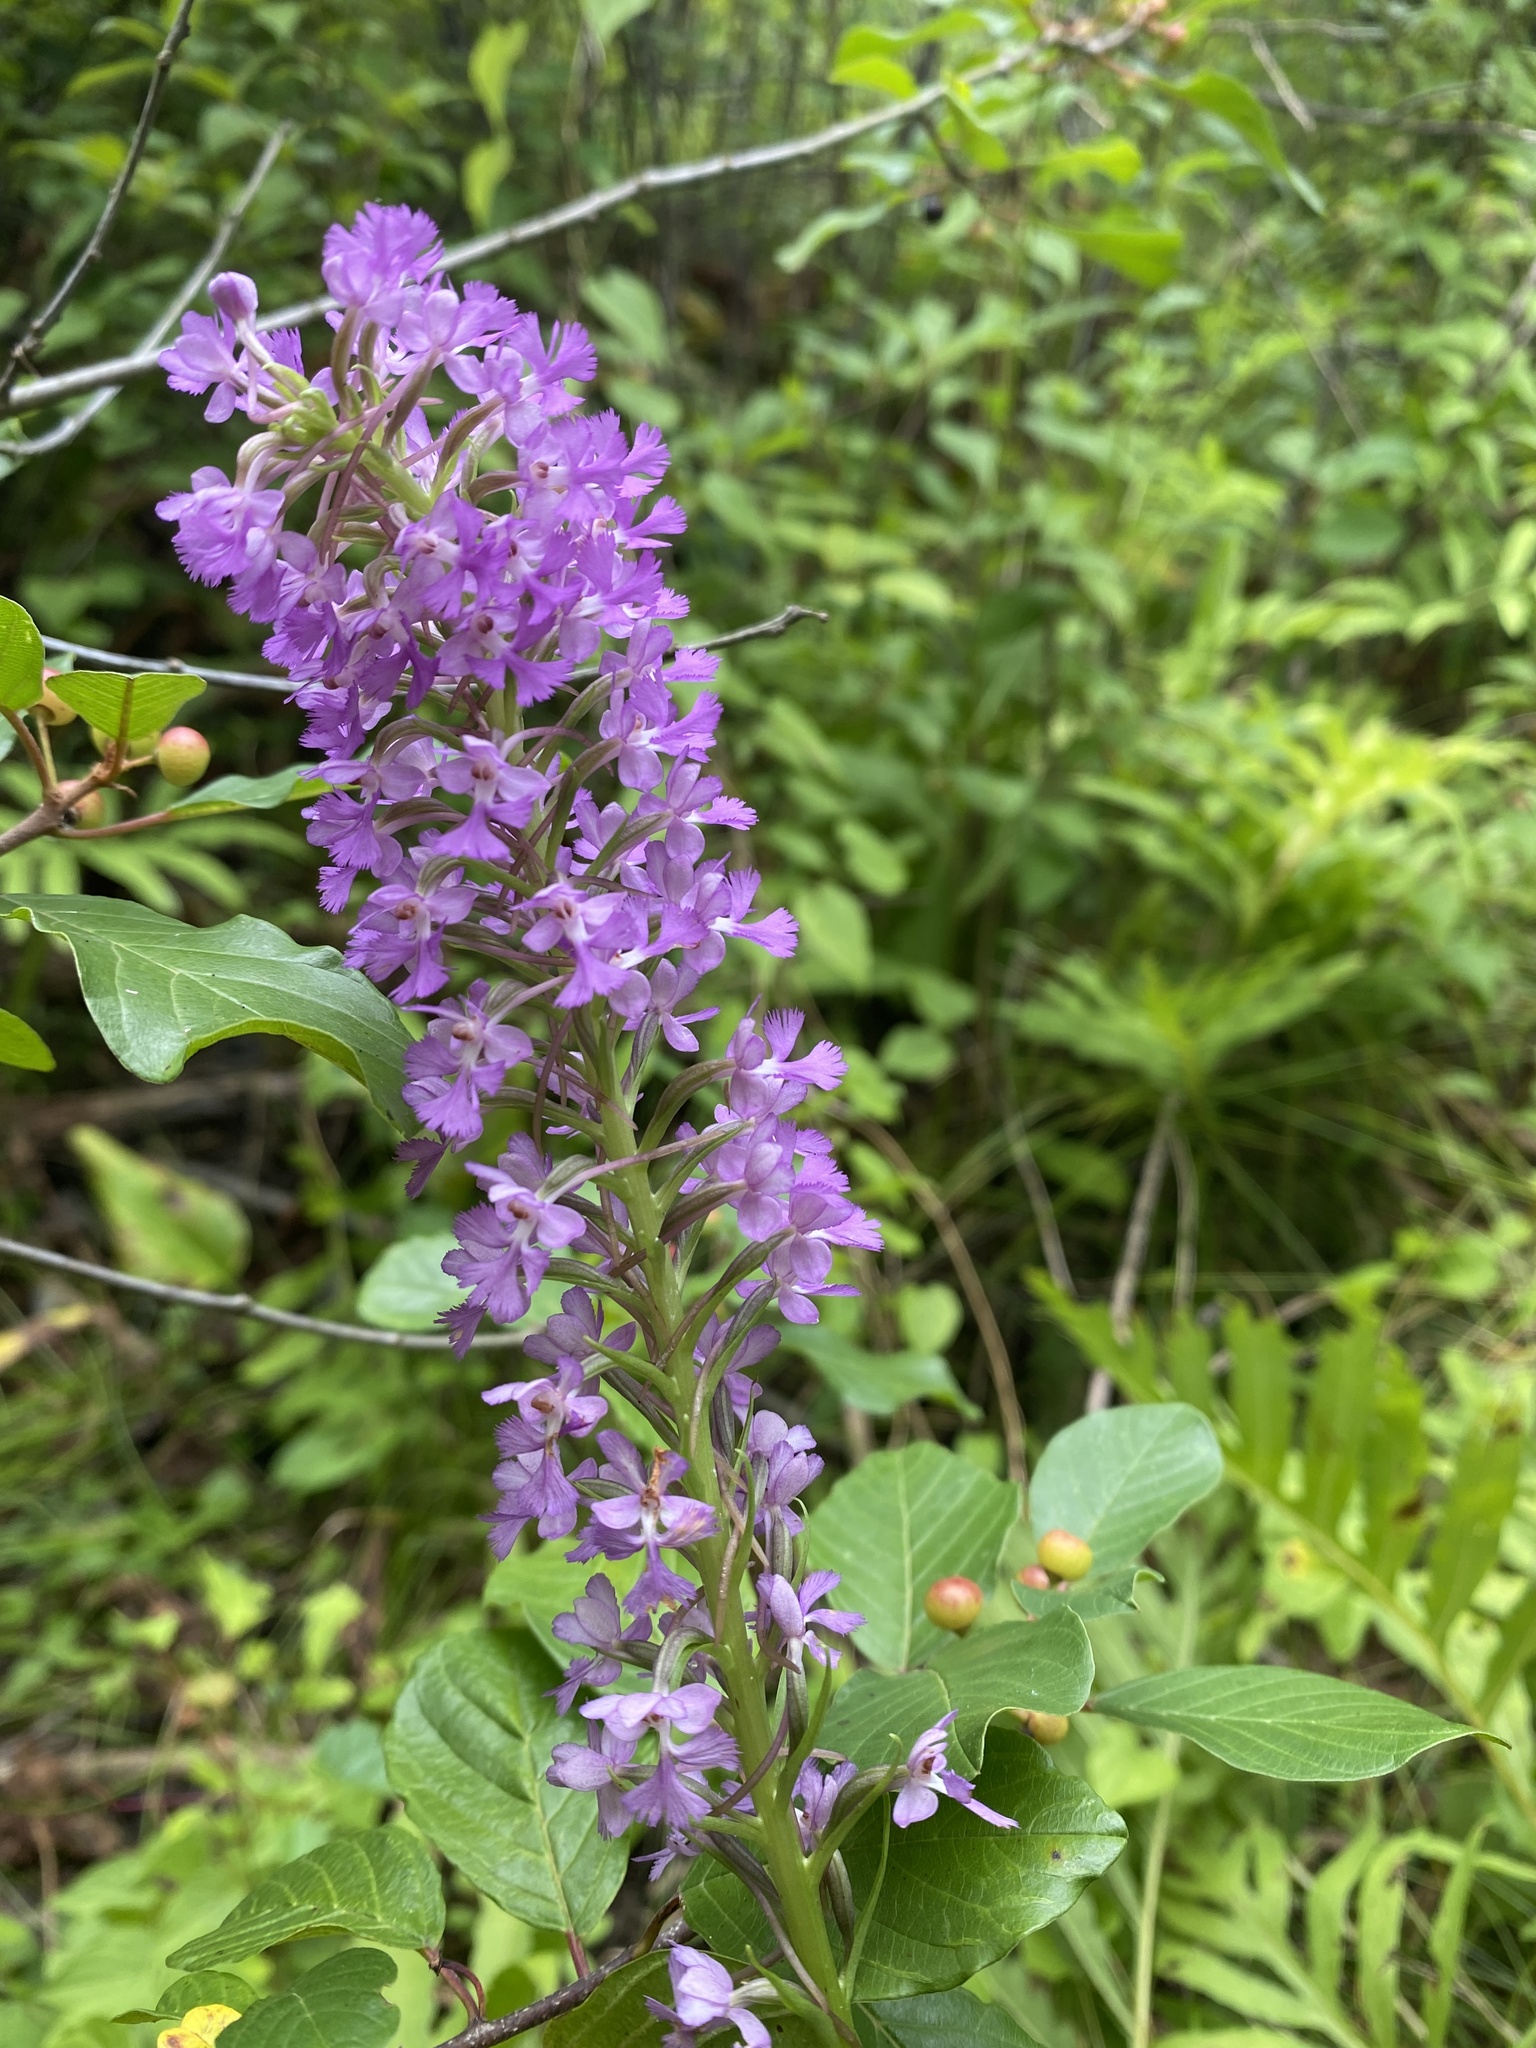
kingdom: Plantae
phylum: Tracheophyta
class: Liliopsida
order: Asparagales
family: Orchidaceae
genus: Platanthera
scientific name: Platanthera psycodes
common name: Lesser purple fringed orchid
